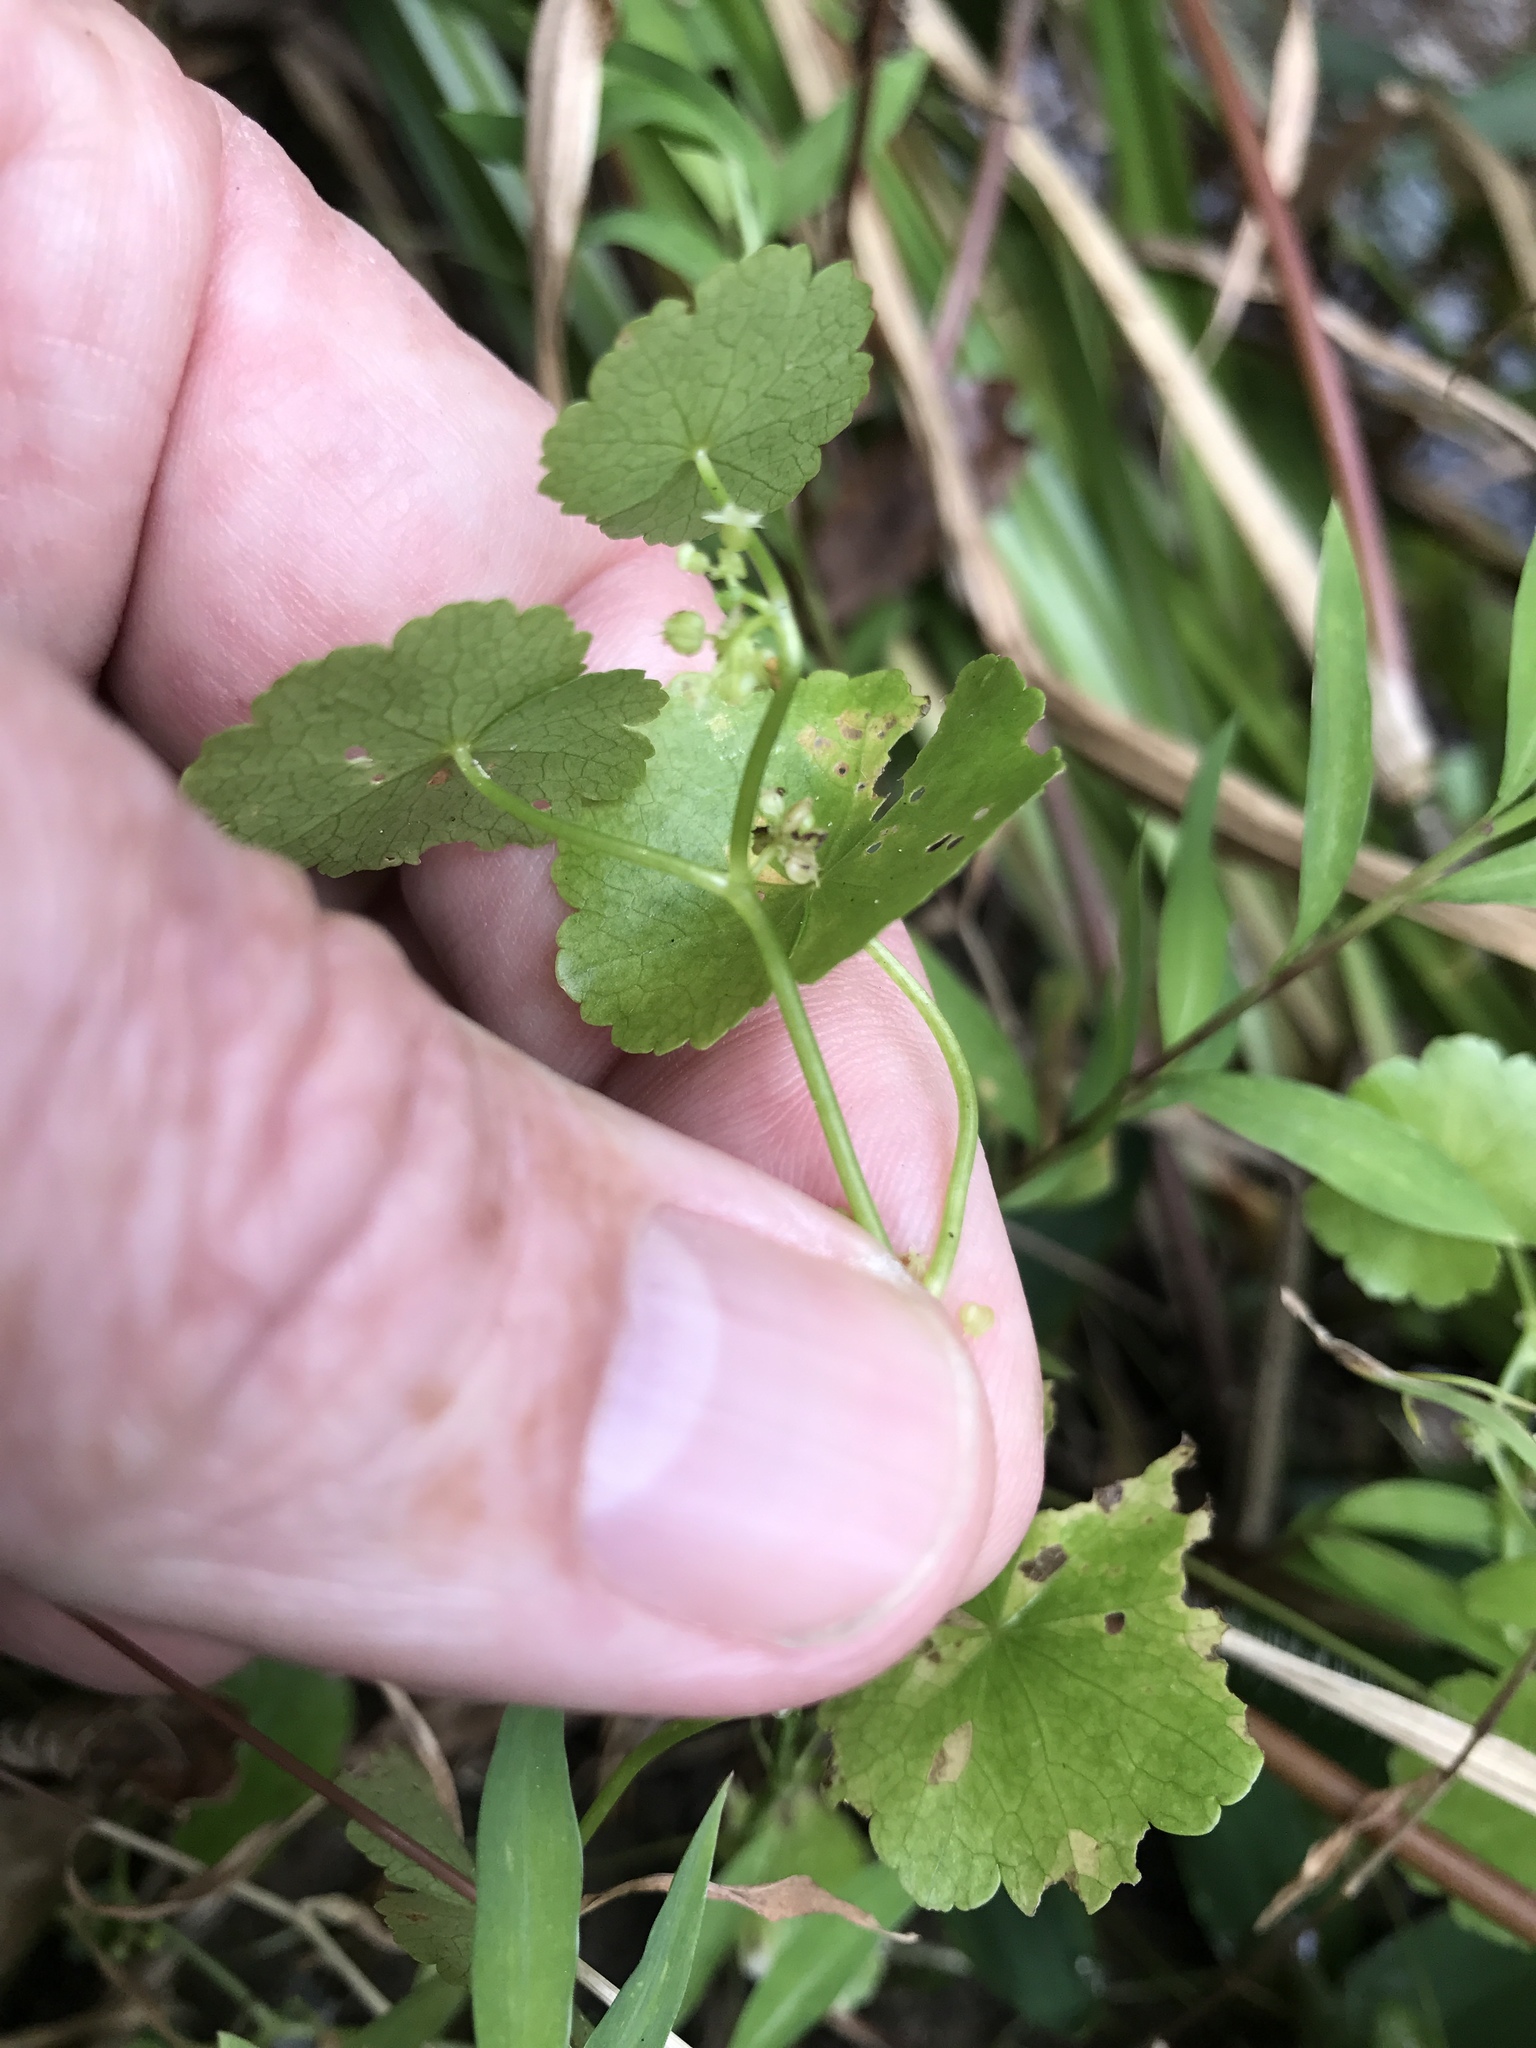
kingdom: Plantae
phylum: Tracheophyta
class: Magnoliopsida
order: Apiales
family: Araliaceae
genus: Hydrocotyle
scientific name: Hydrocotyle americana
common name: American water-pennywort
